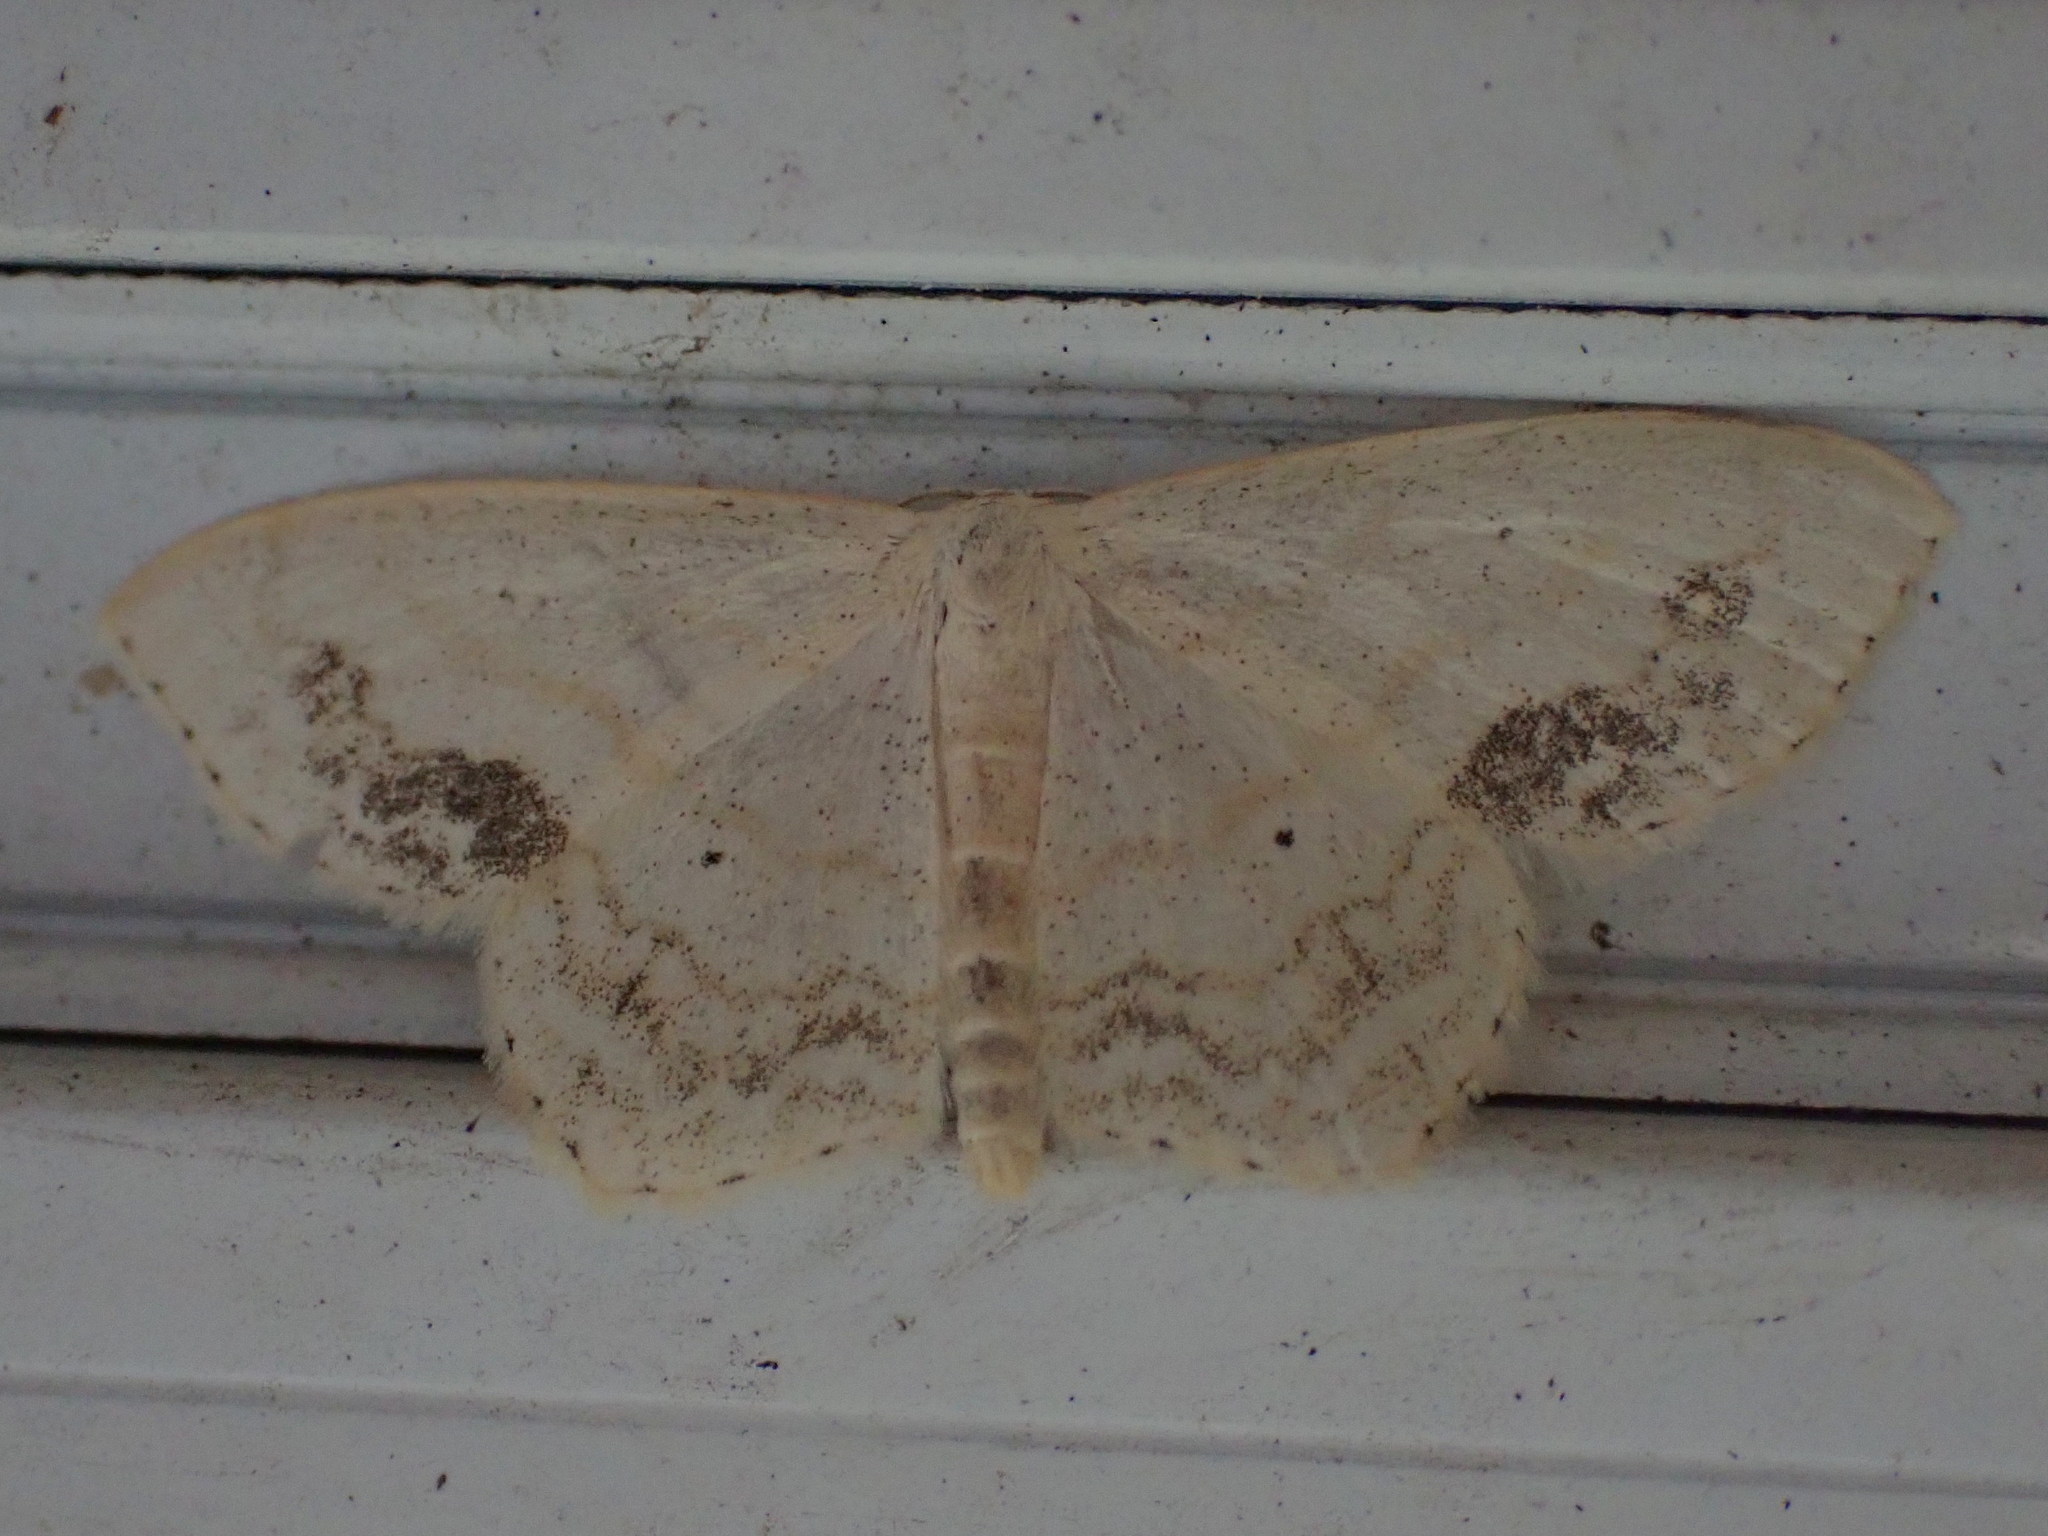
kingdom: Animalia
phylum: Arthropoda
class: Insecta
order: Lepidoptera
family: Geometridae
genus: Scopula
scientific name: Scopula limboundata
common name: Large lace border
